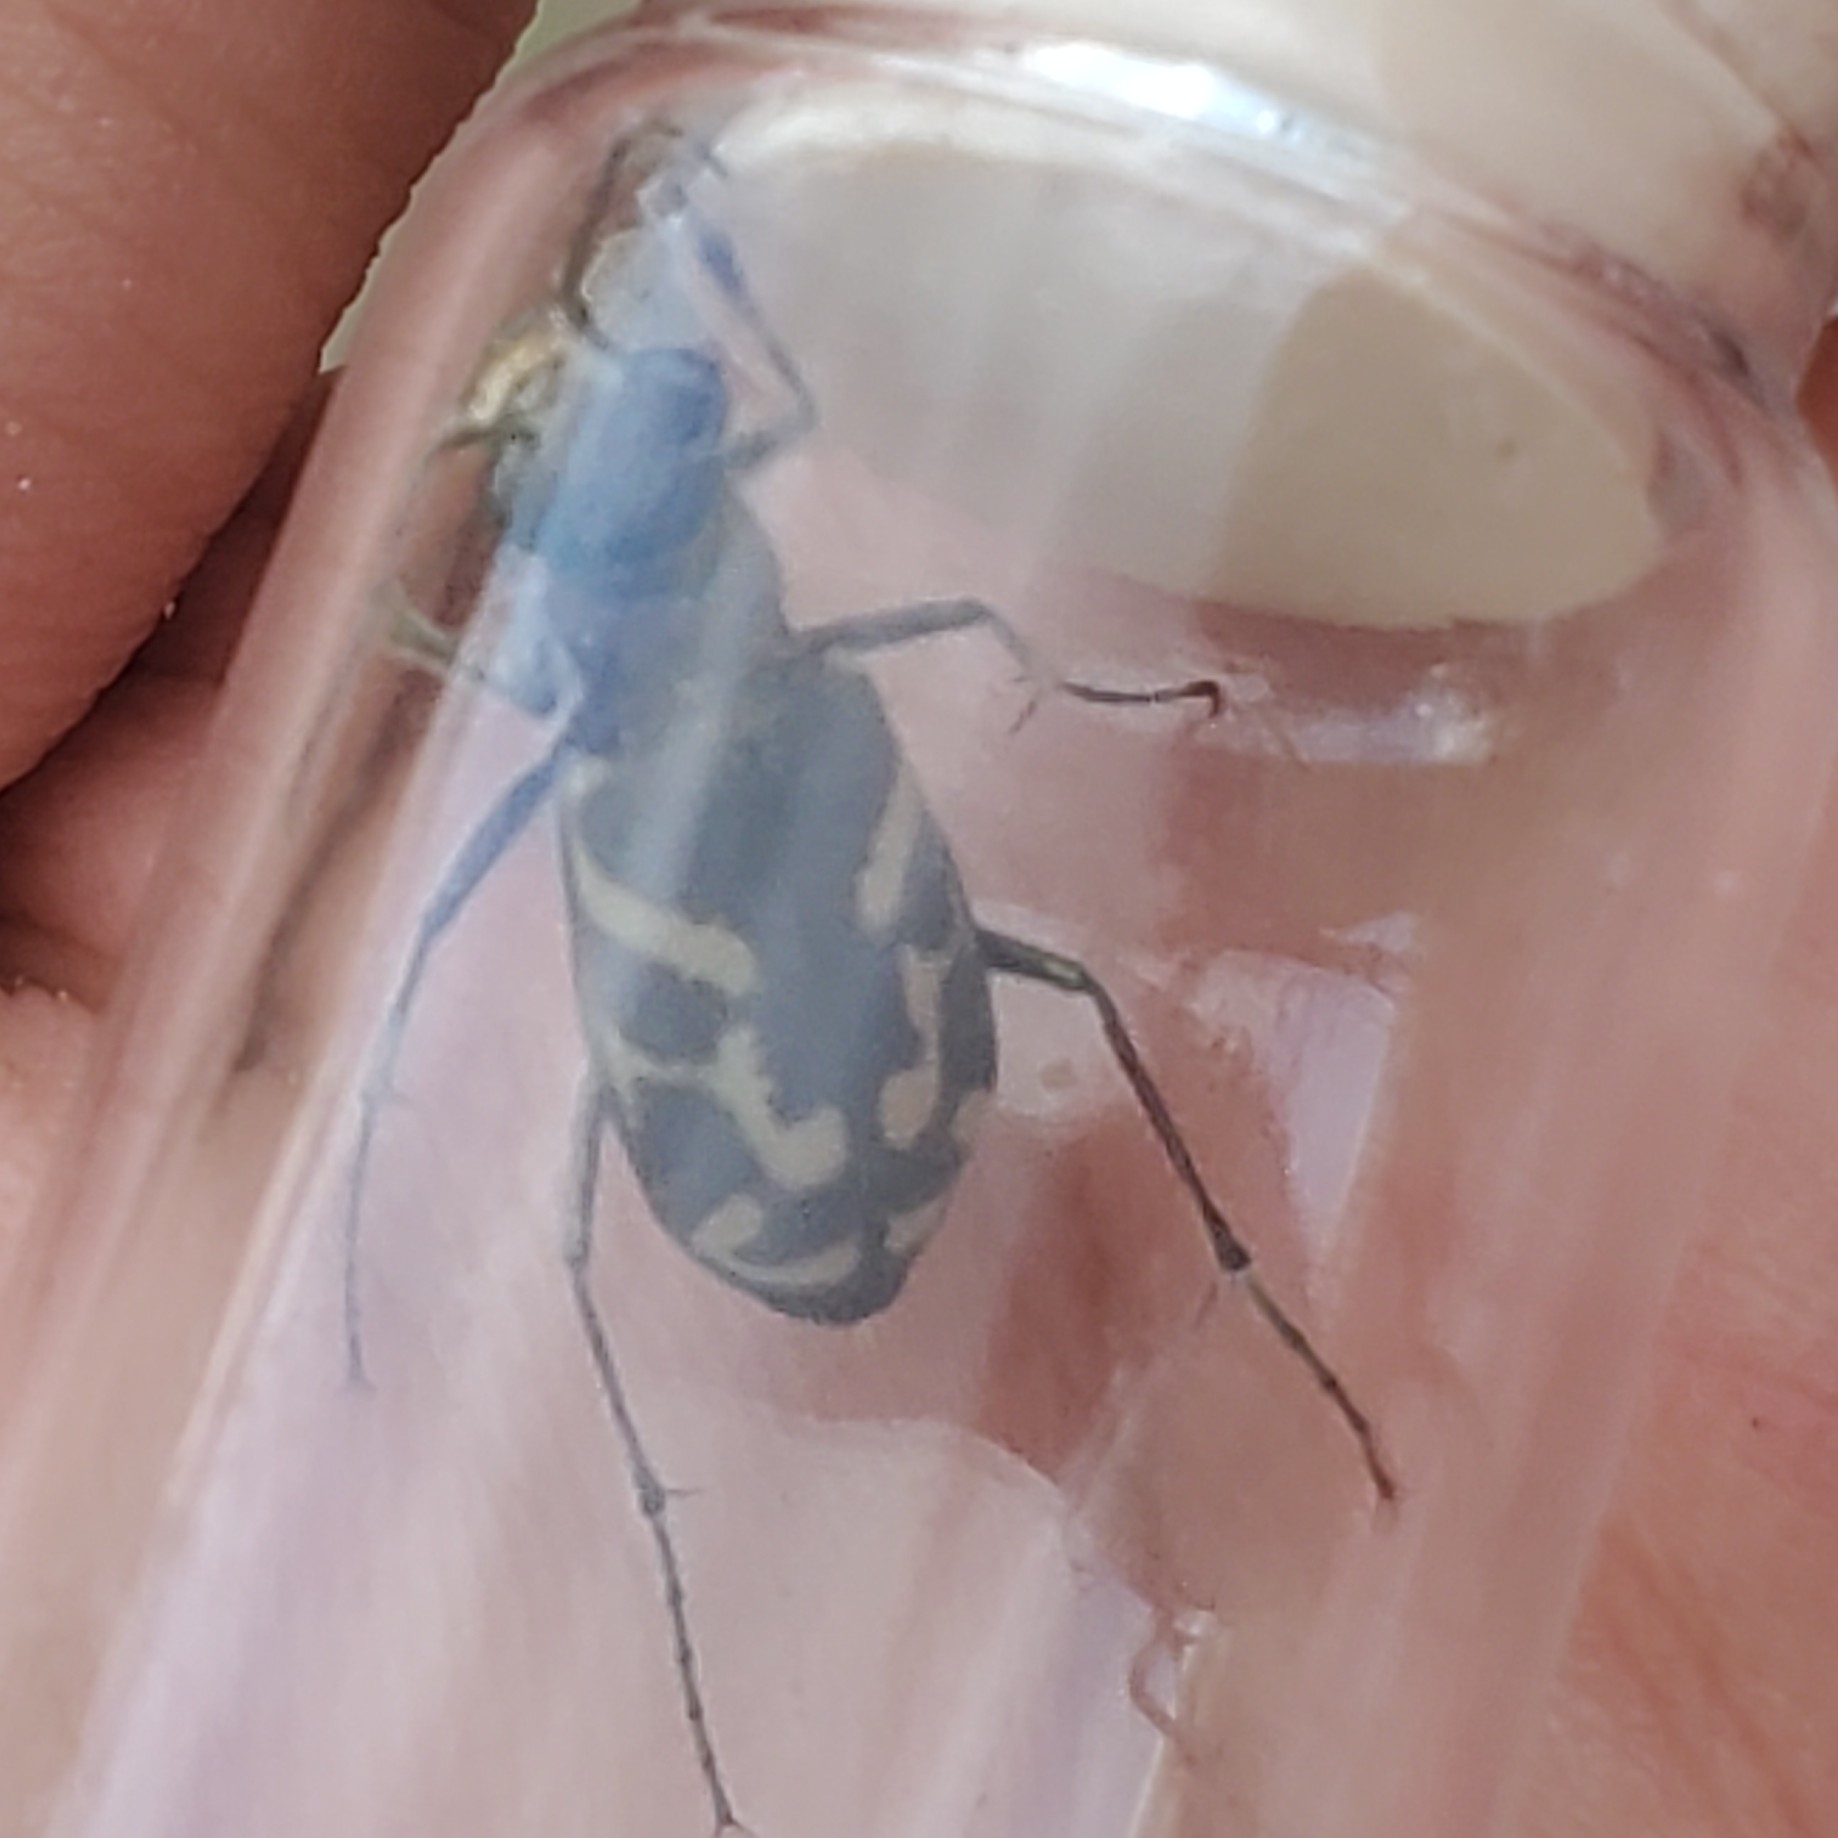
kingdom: Animalia
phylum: Arthropoda
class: Insecta
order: Coleoptera
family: Carabidae
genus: Cicindela
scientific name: Cicindela tranquebarica
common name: Oblique-lined tiger beetle
